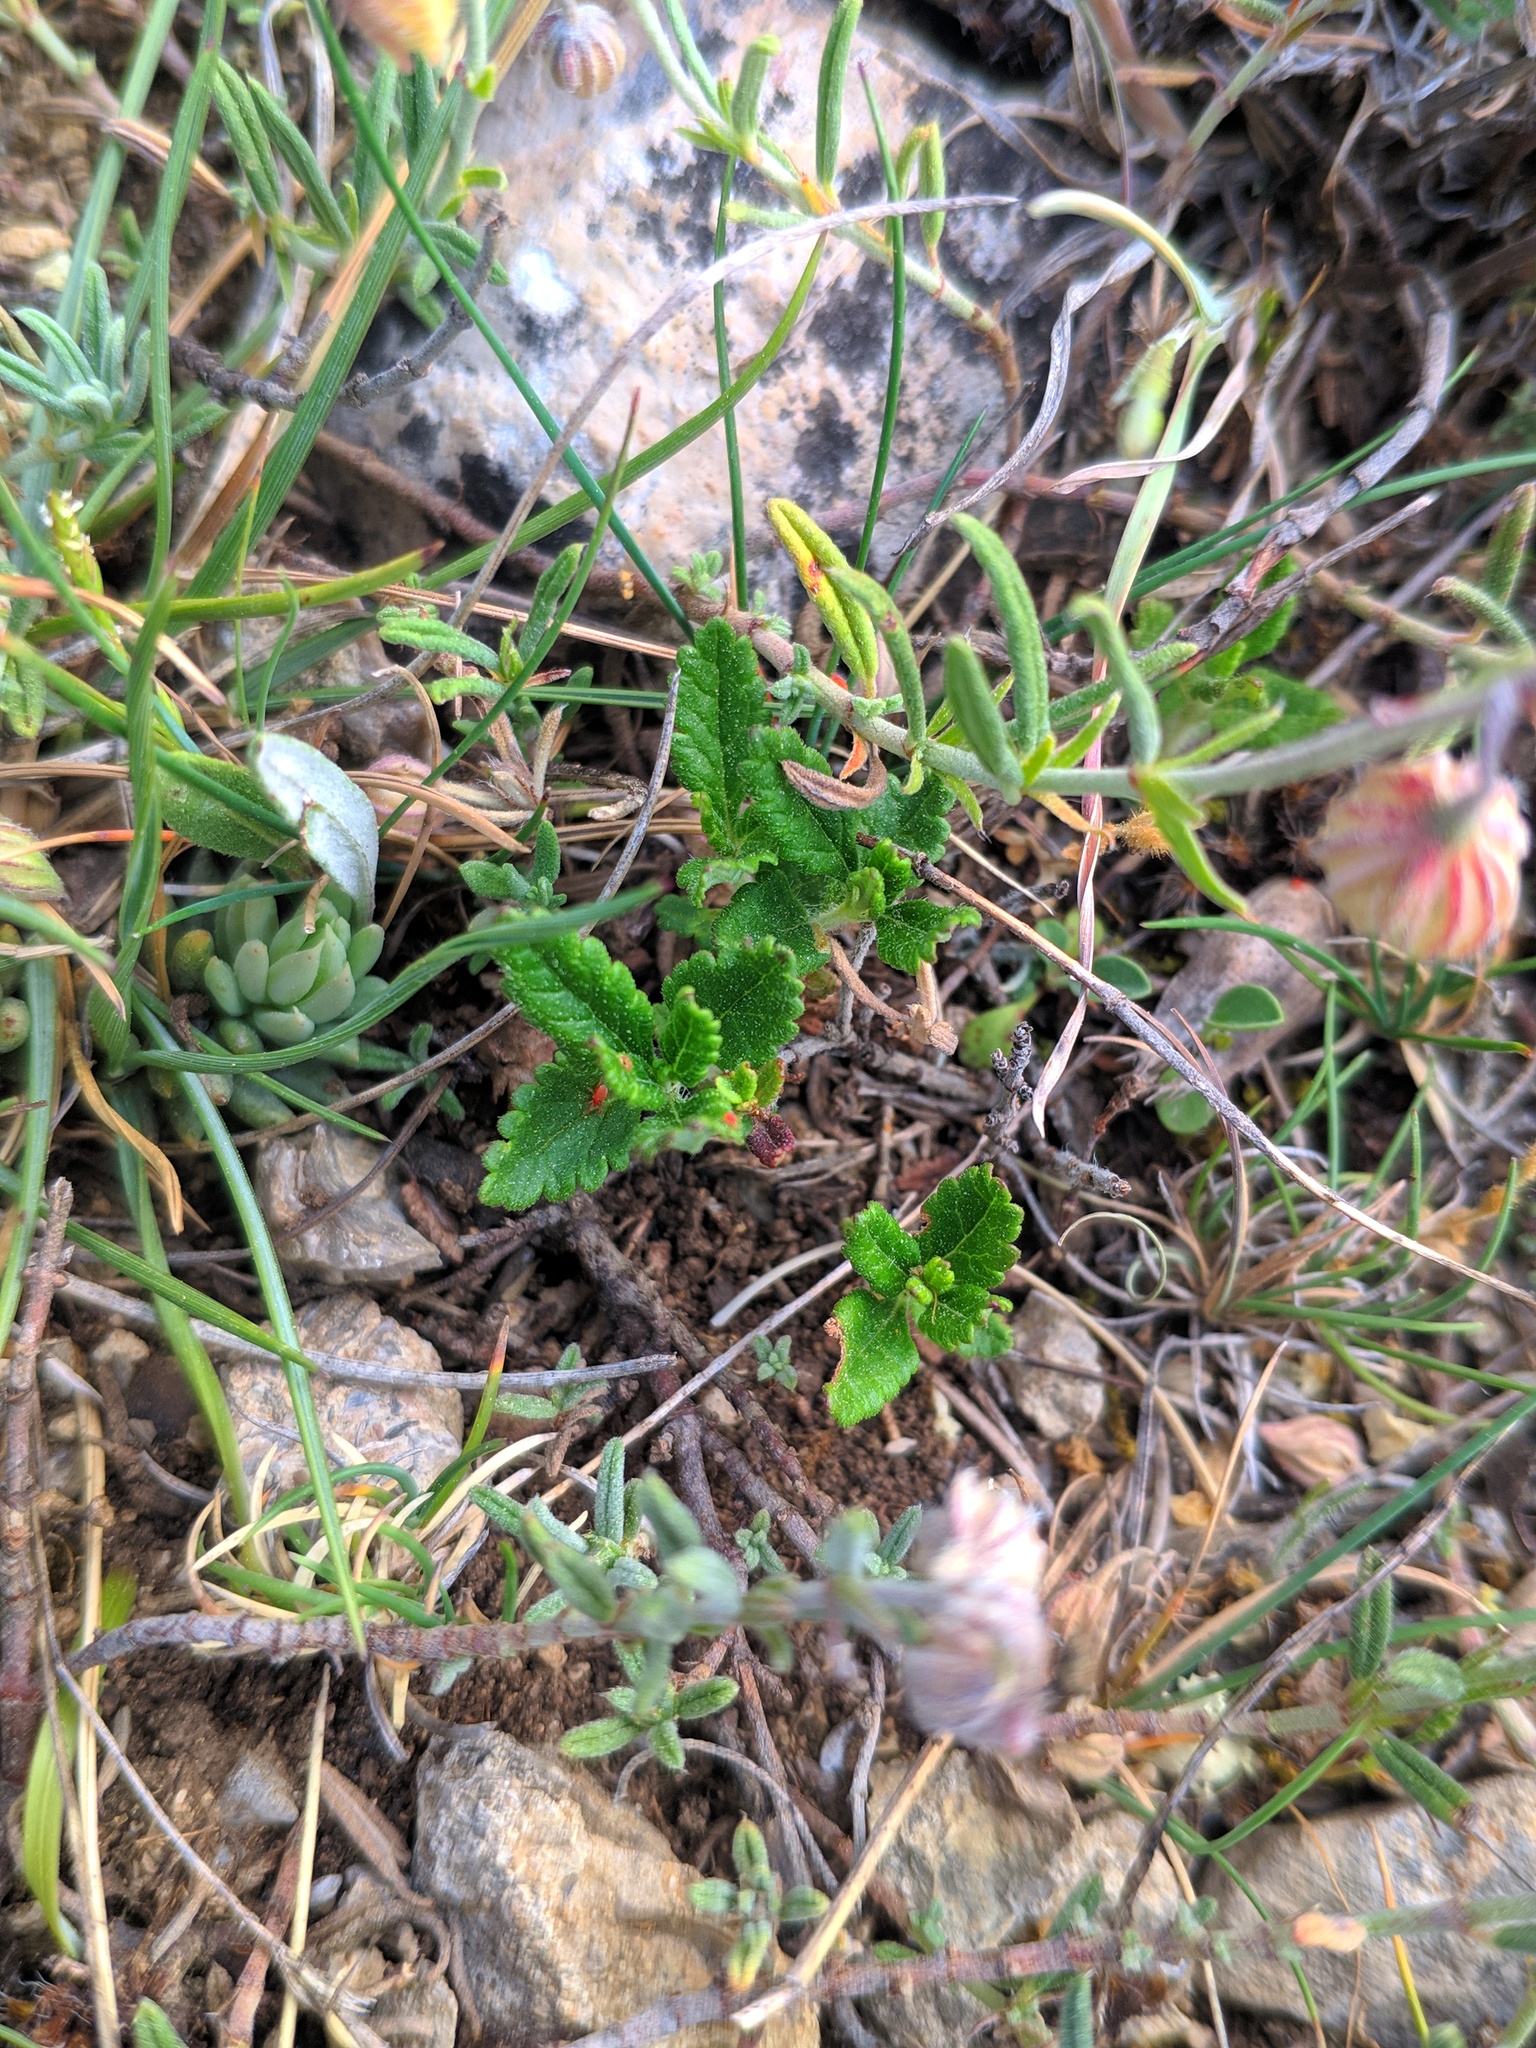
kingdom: Plantae
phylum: Tracheophyta
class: Magnoliopsida
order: Lamiales
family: Lamiaceae
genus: Teucrium
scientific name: Teucrium chamaedrys
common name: Wall germander
